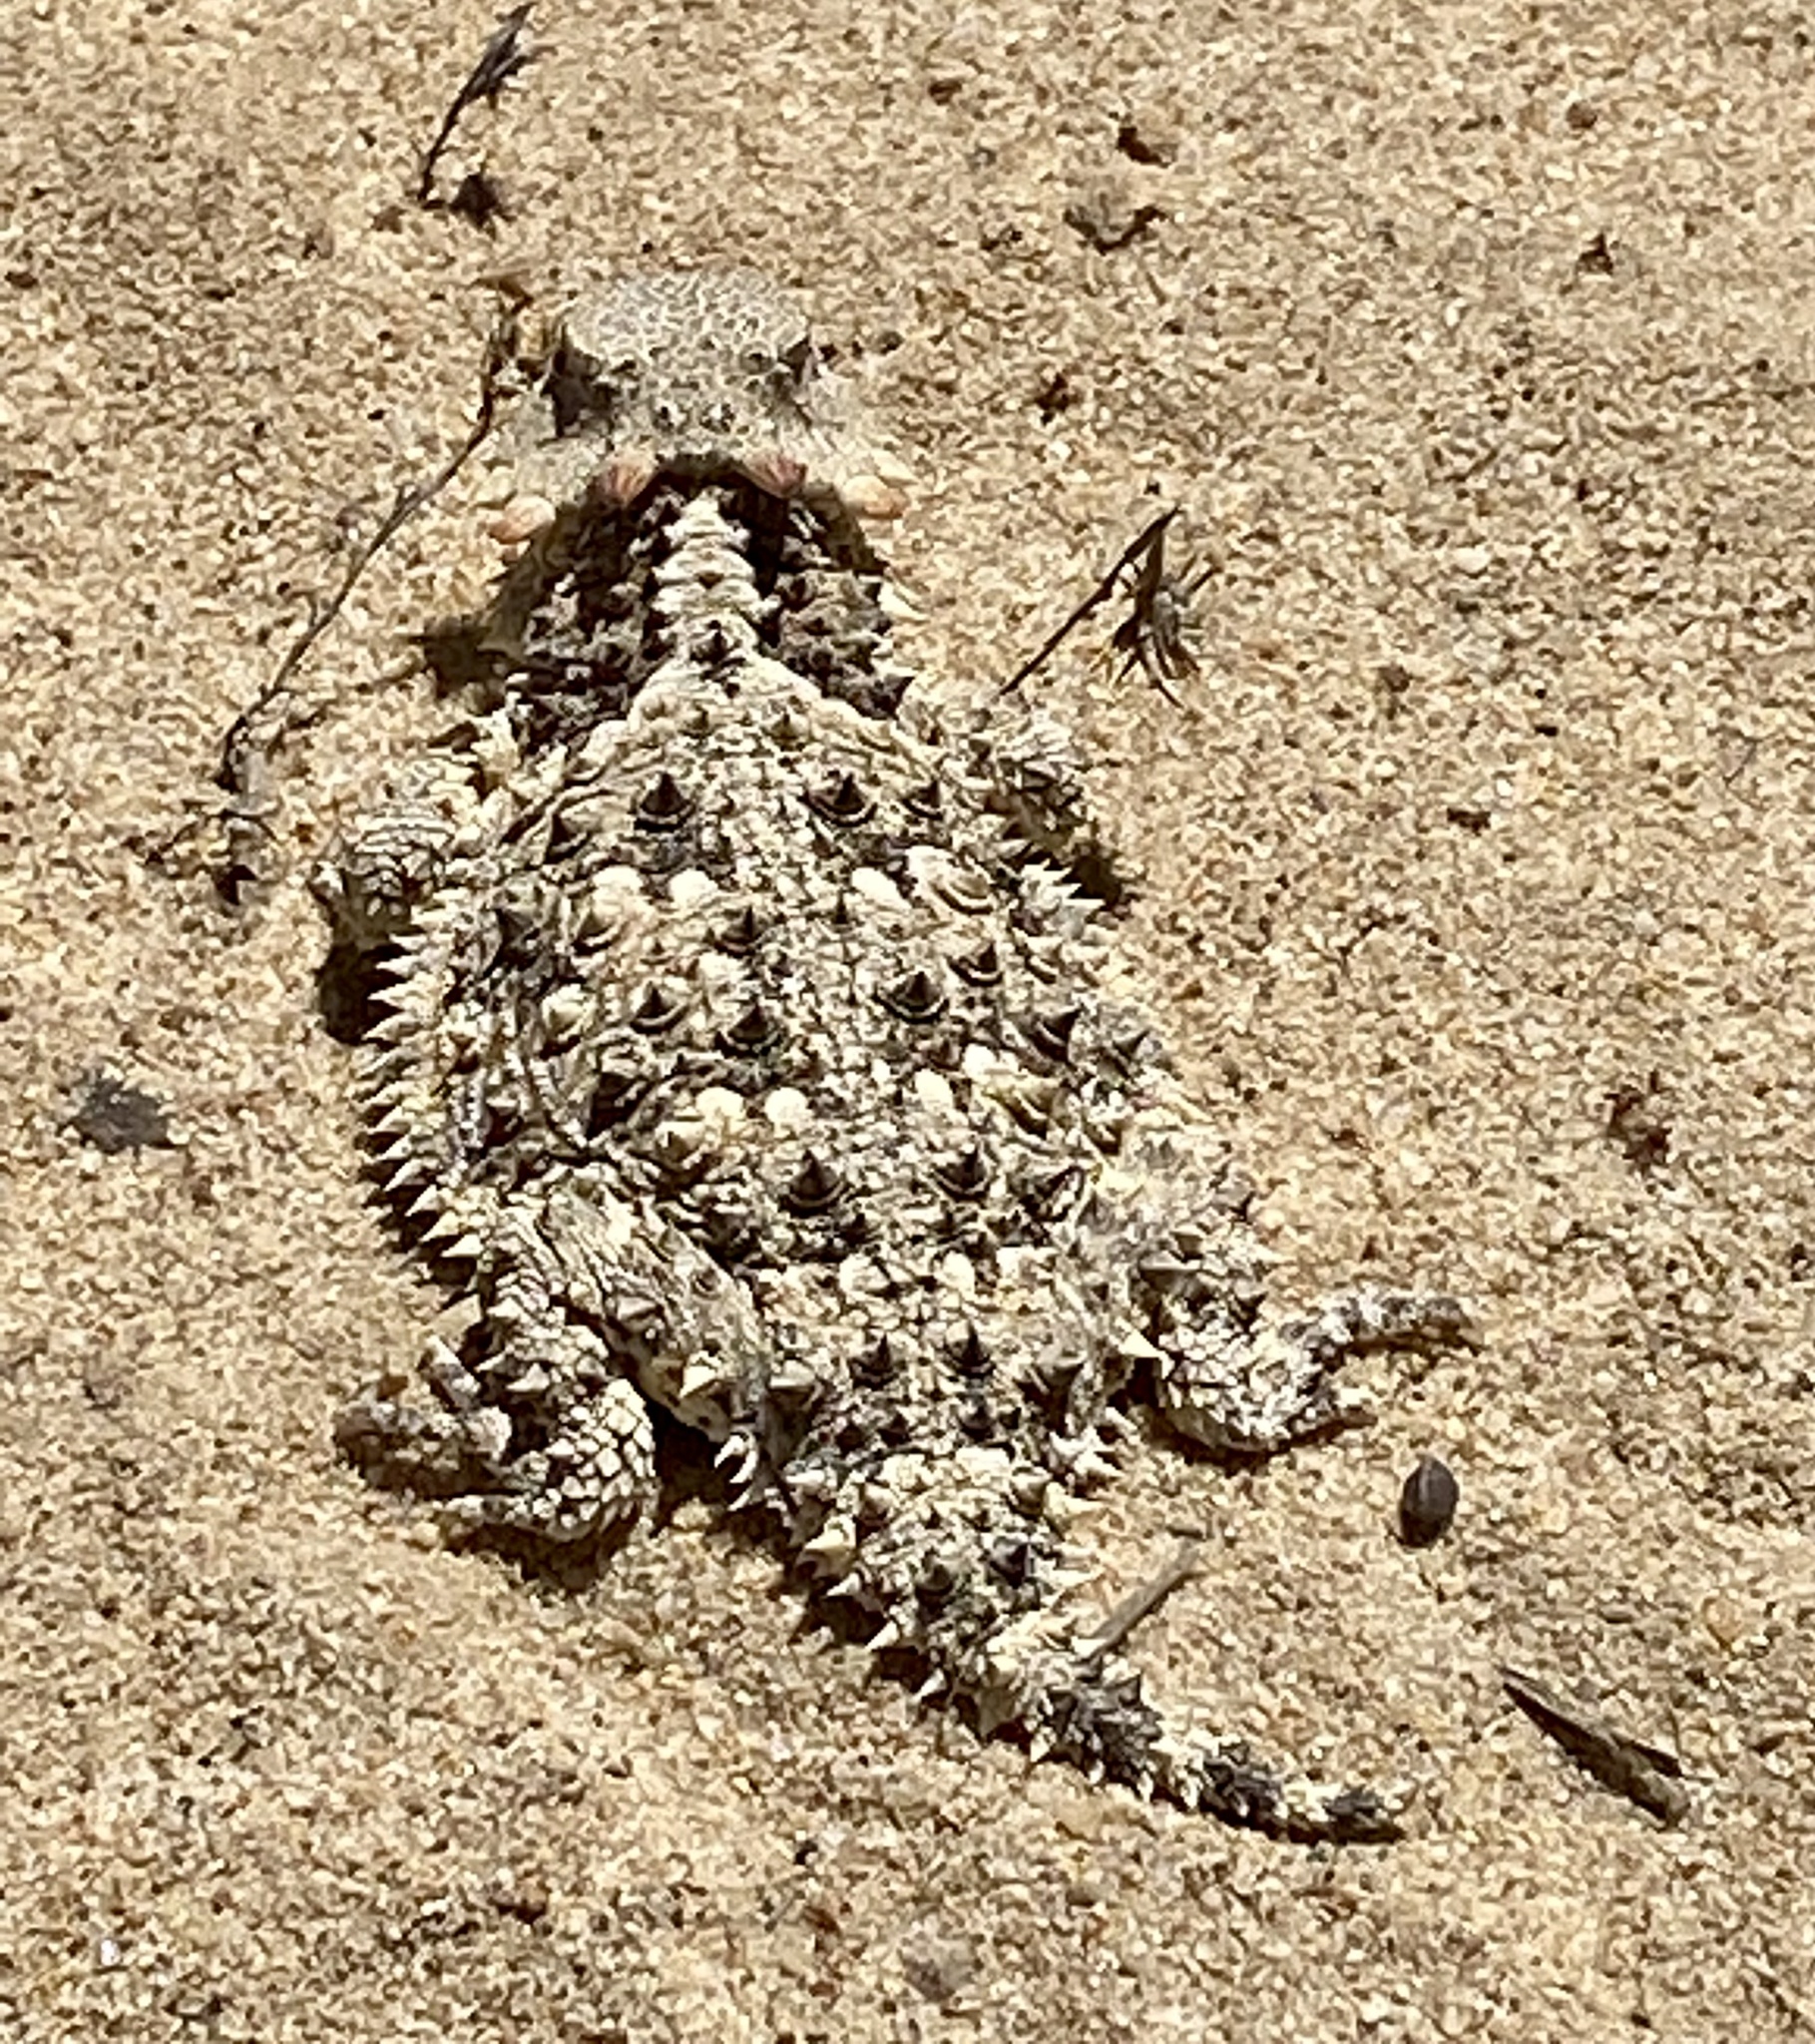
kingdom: Animalia
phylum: Chordata
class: Squamata
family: Phrynosomatidae
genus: Phrynosoma
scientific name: Phrynosoma blainvillii
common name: San diego horned lizard
